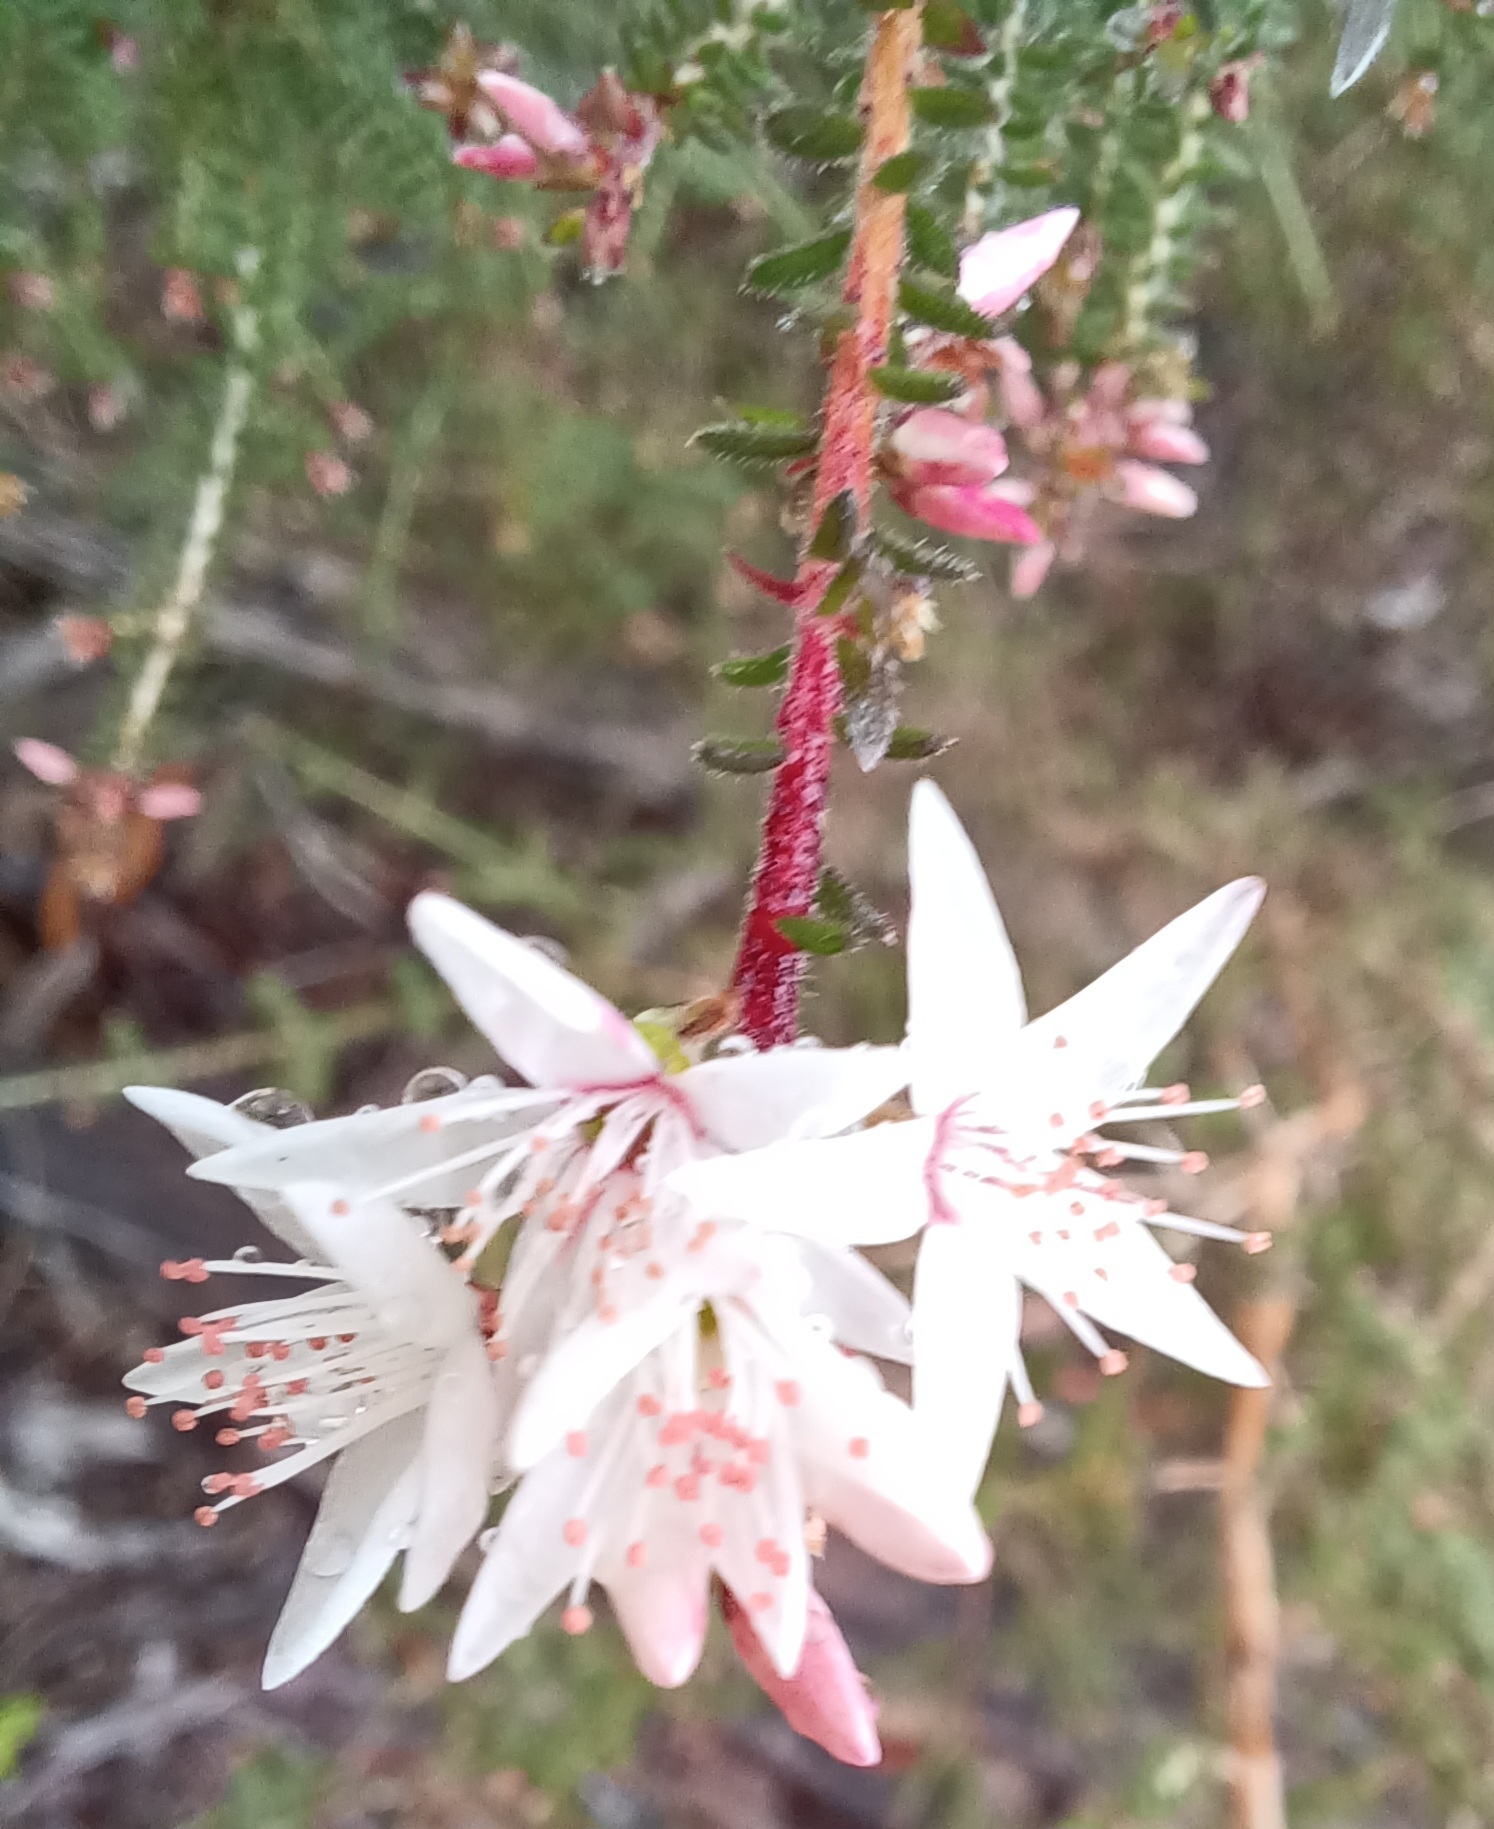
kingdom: Plantae
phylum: Tracheophyta
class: Magnoliopsida
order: Myrtales
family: Myrtaceae
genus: Calytrix
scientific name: Calytrix alpestris
